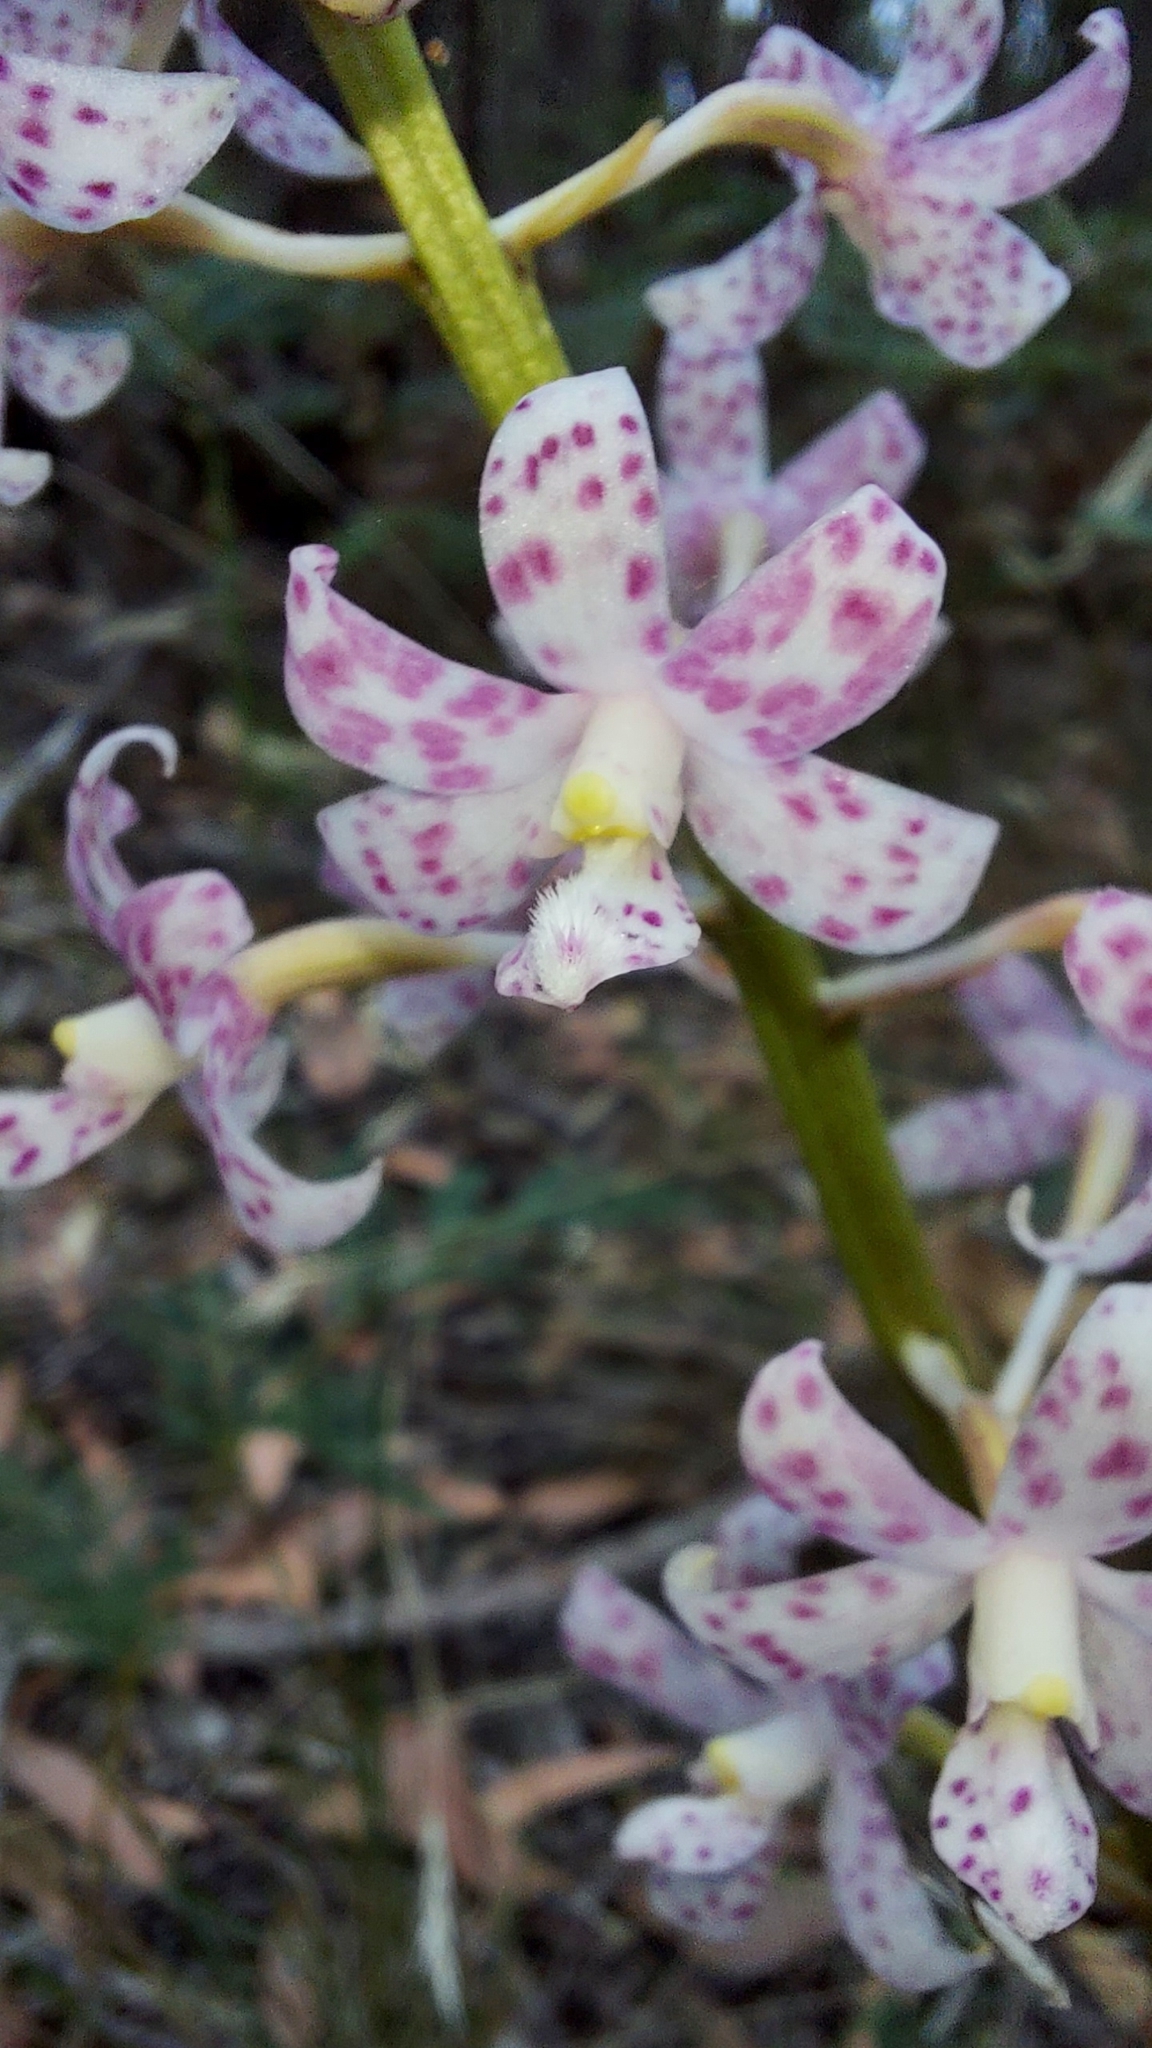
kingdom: Plantae
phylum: Tracheophyta
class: Liliopsida
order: Asparagales
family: Orchidaceae
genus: Dipodium
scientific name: Dipodium pardalinum
